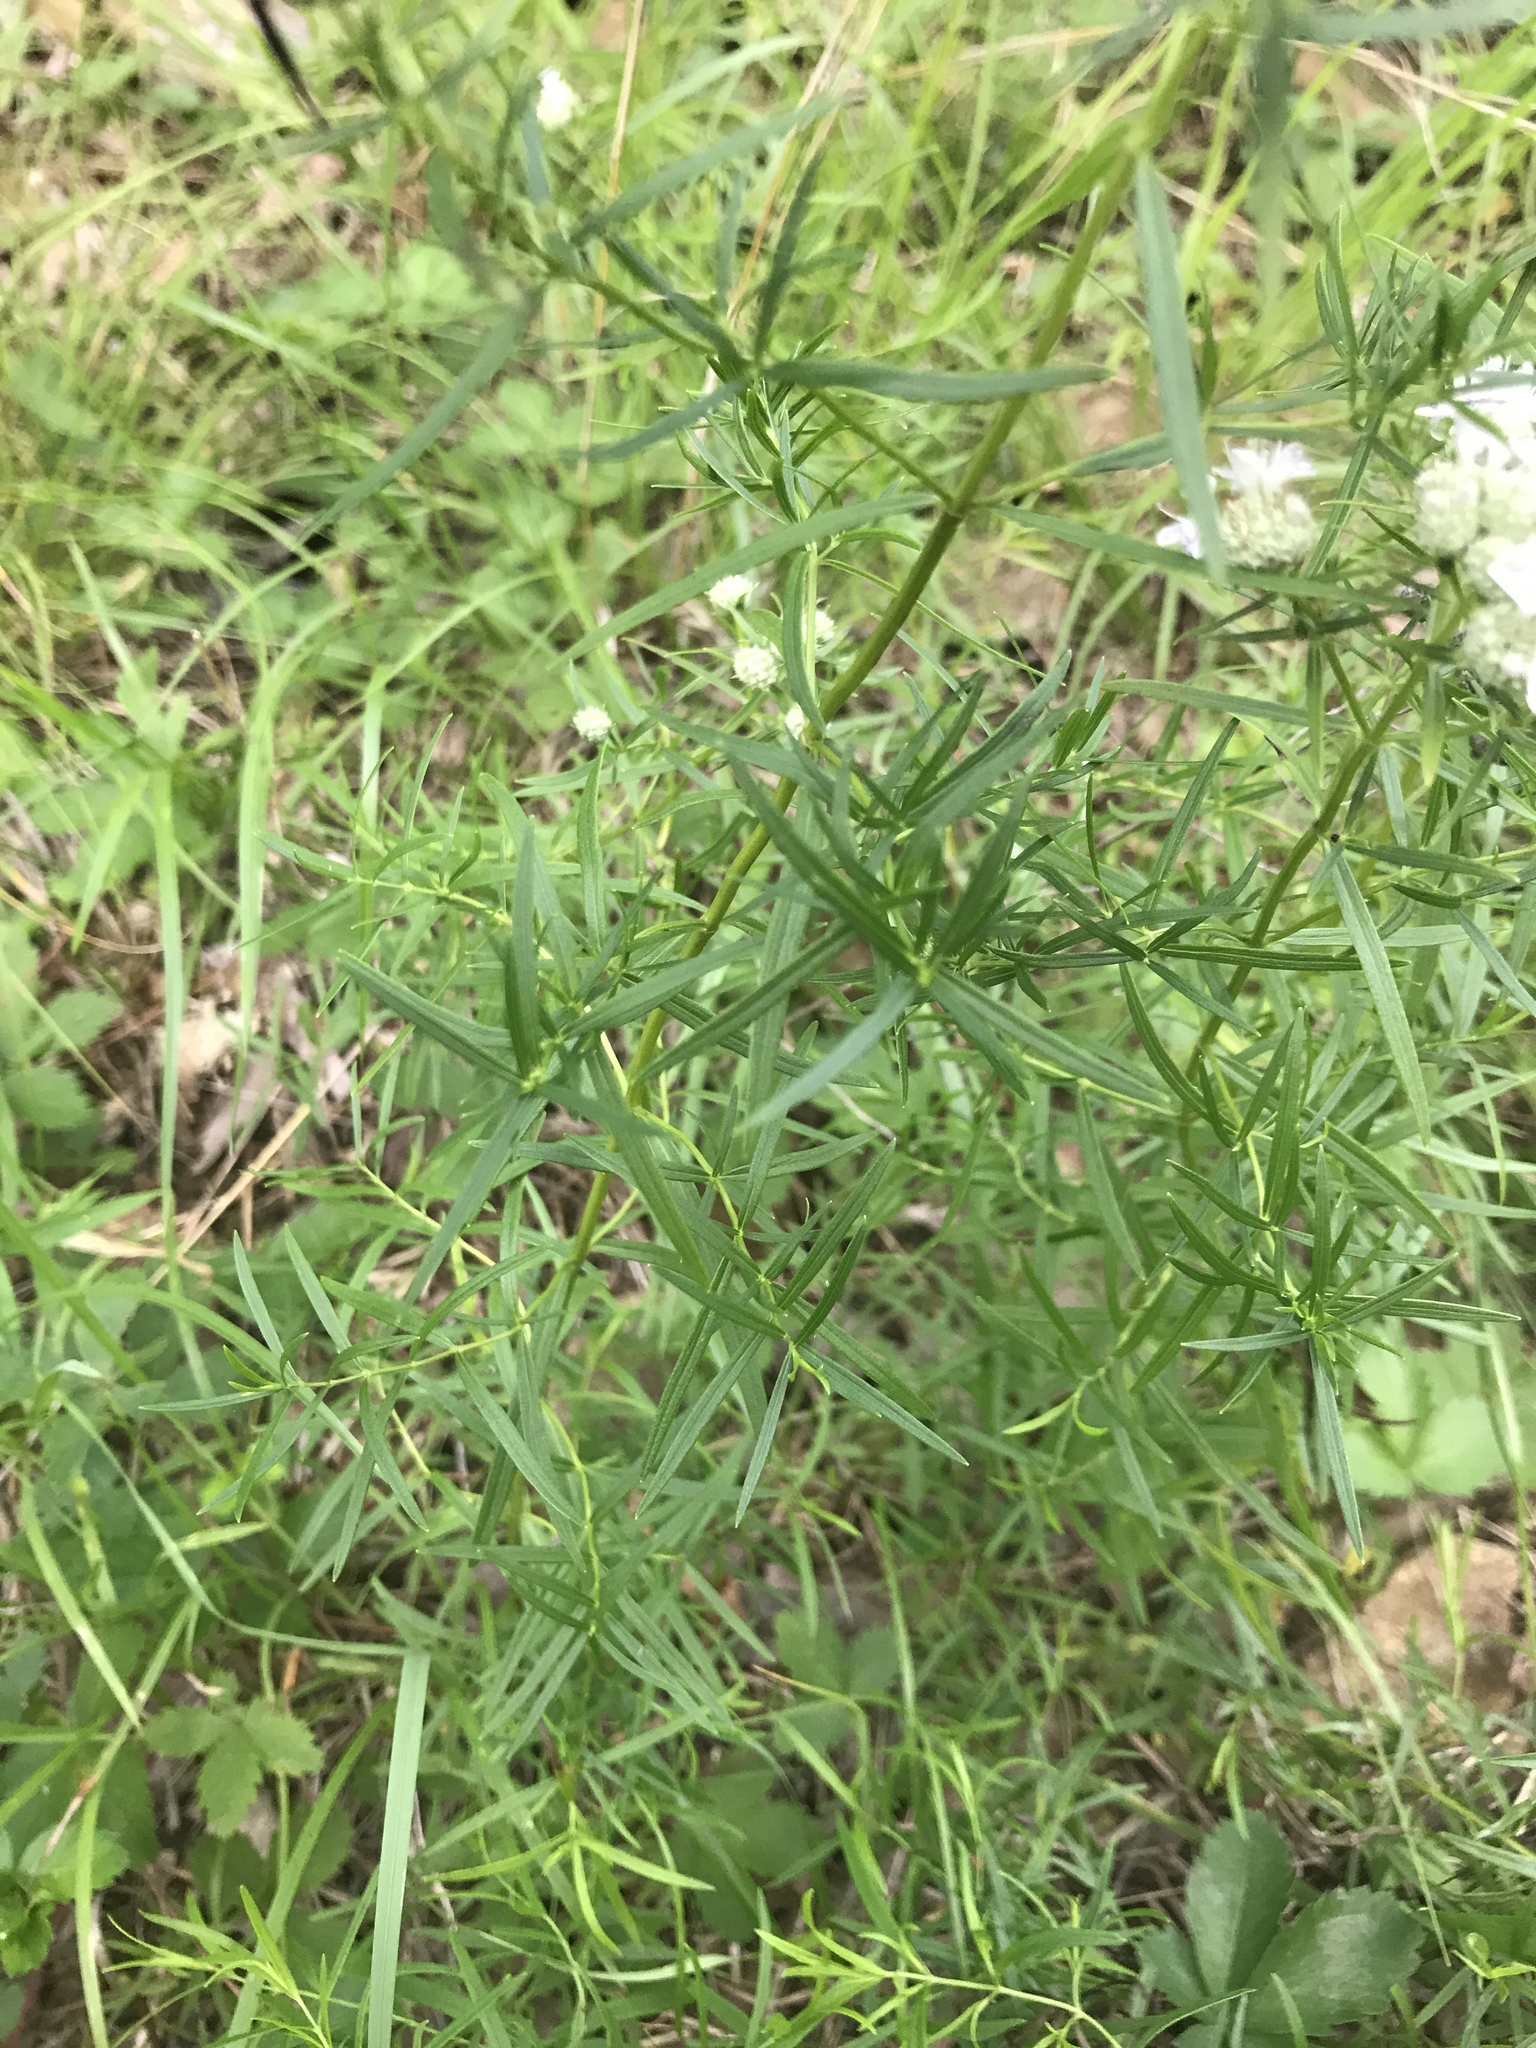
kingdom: Plantae
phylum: Tracheophyta
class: Magnoliopsida
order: Lamiales
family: Lamiaceae
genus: Pycnanthemum
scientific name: Pycnanthemum tenuifolium
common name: Narrow-leaf mountain-mint
